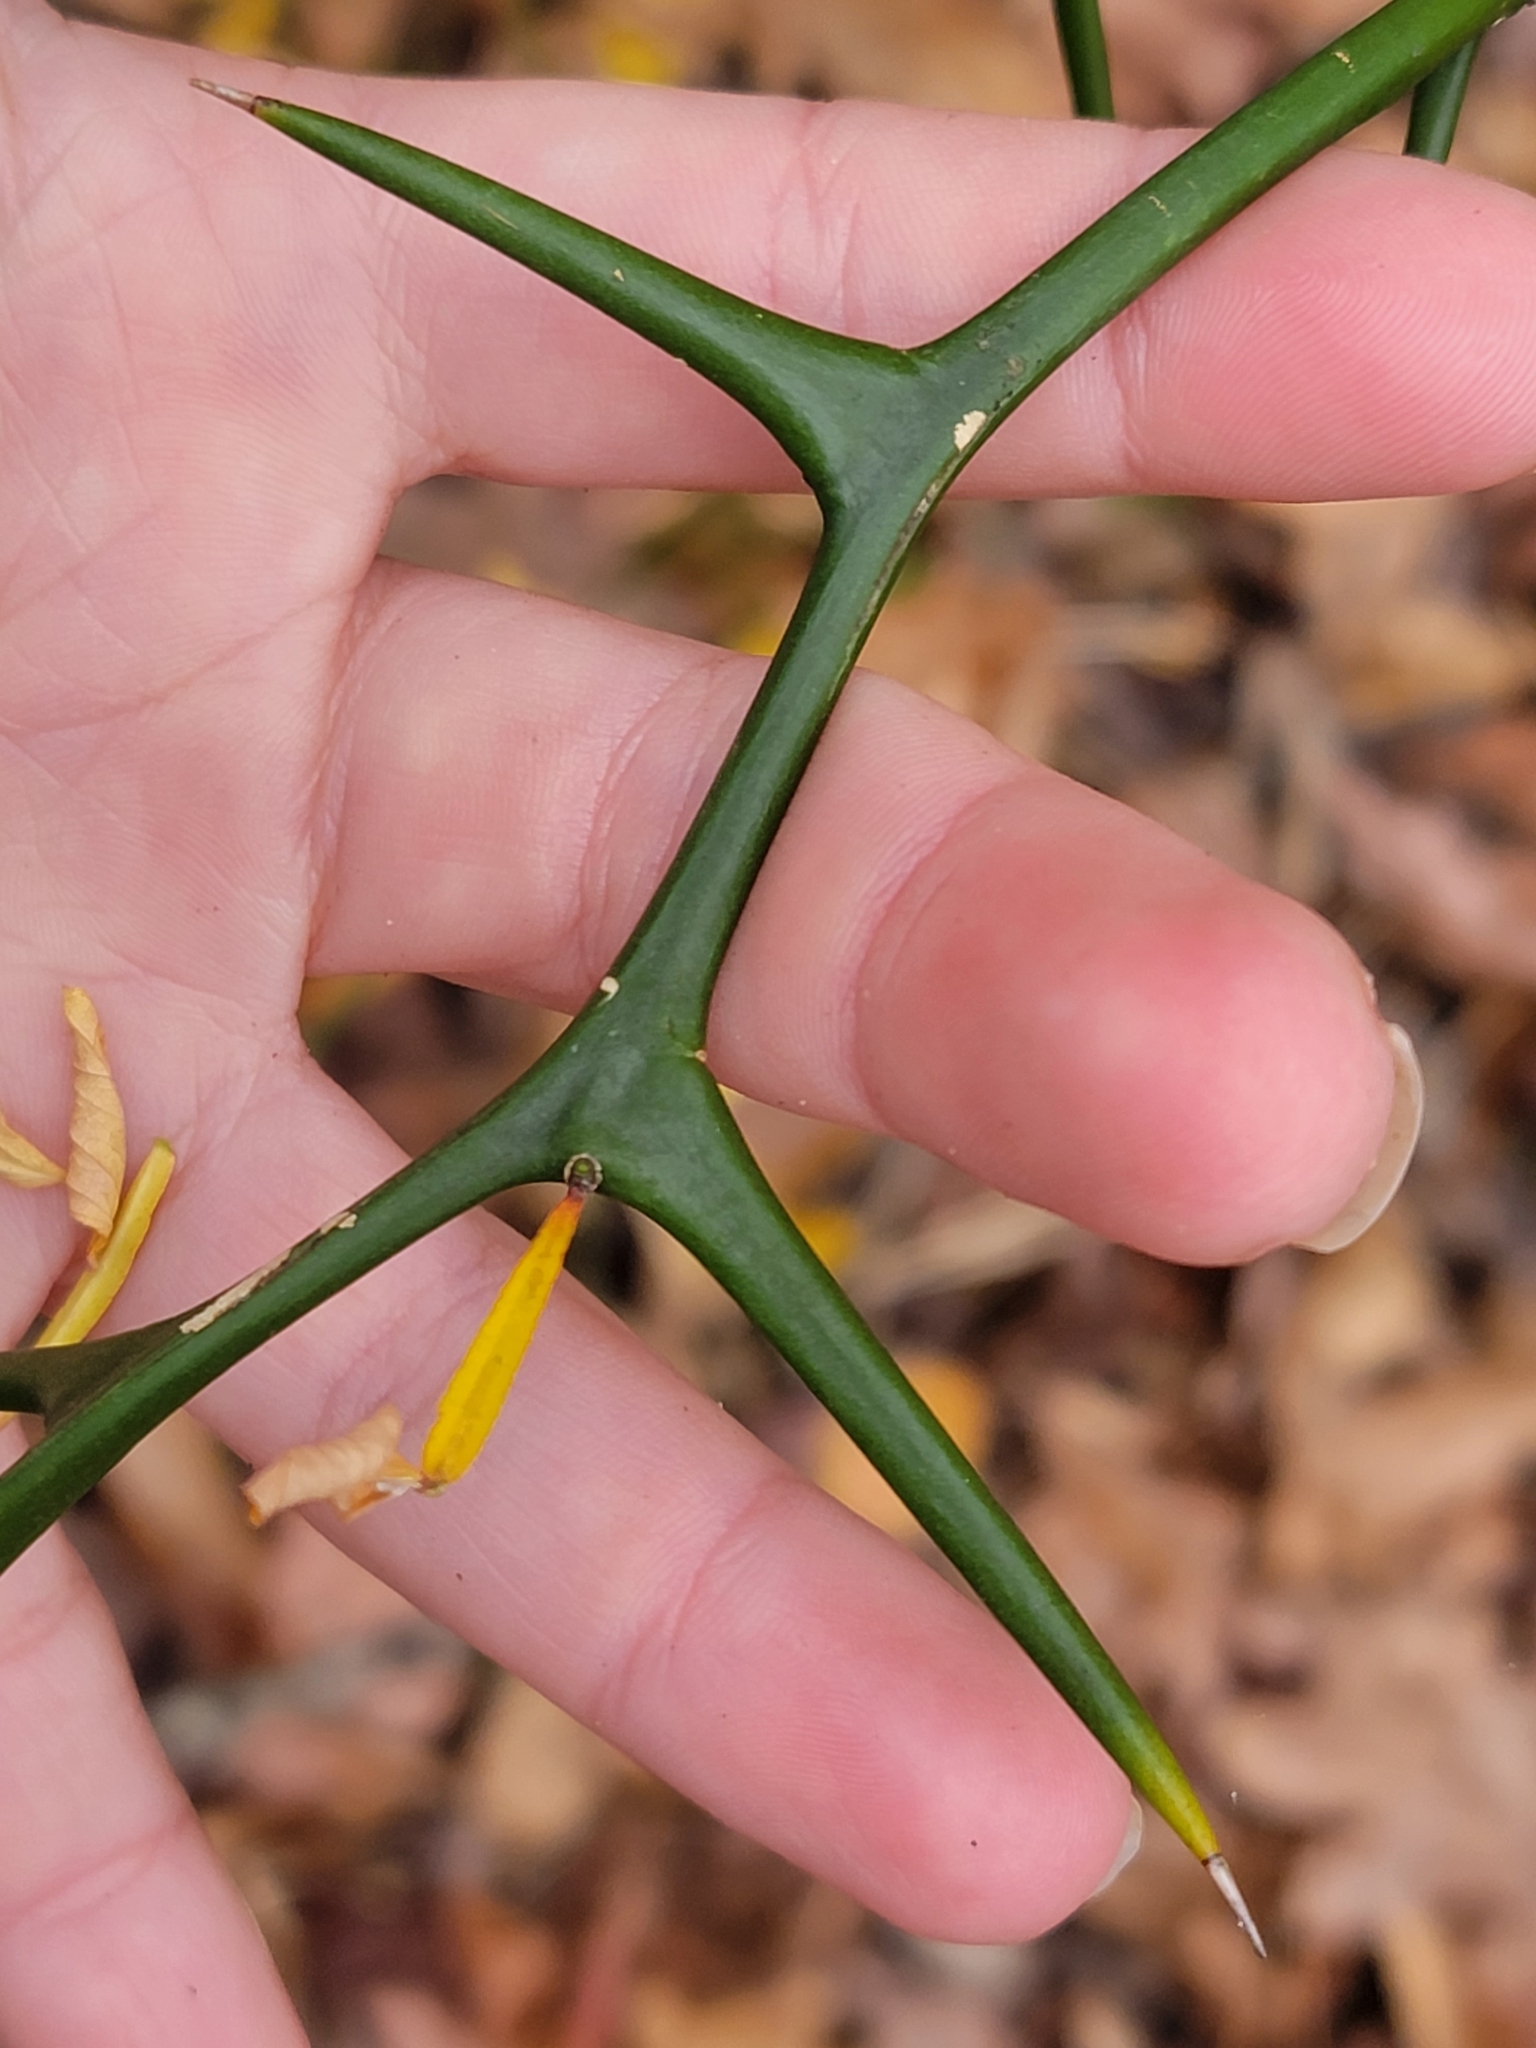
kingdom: Plantae
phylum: Tracheophyta
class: Magnoliopsida
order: Sapindales
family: Rutaceae
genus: Citrus
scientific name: Citrus trifoliata
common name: Japanese bitter-orange
